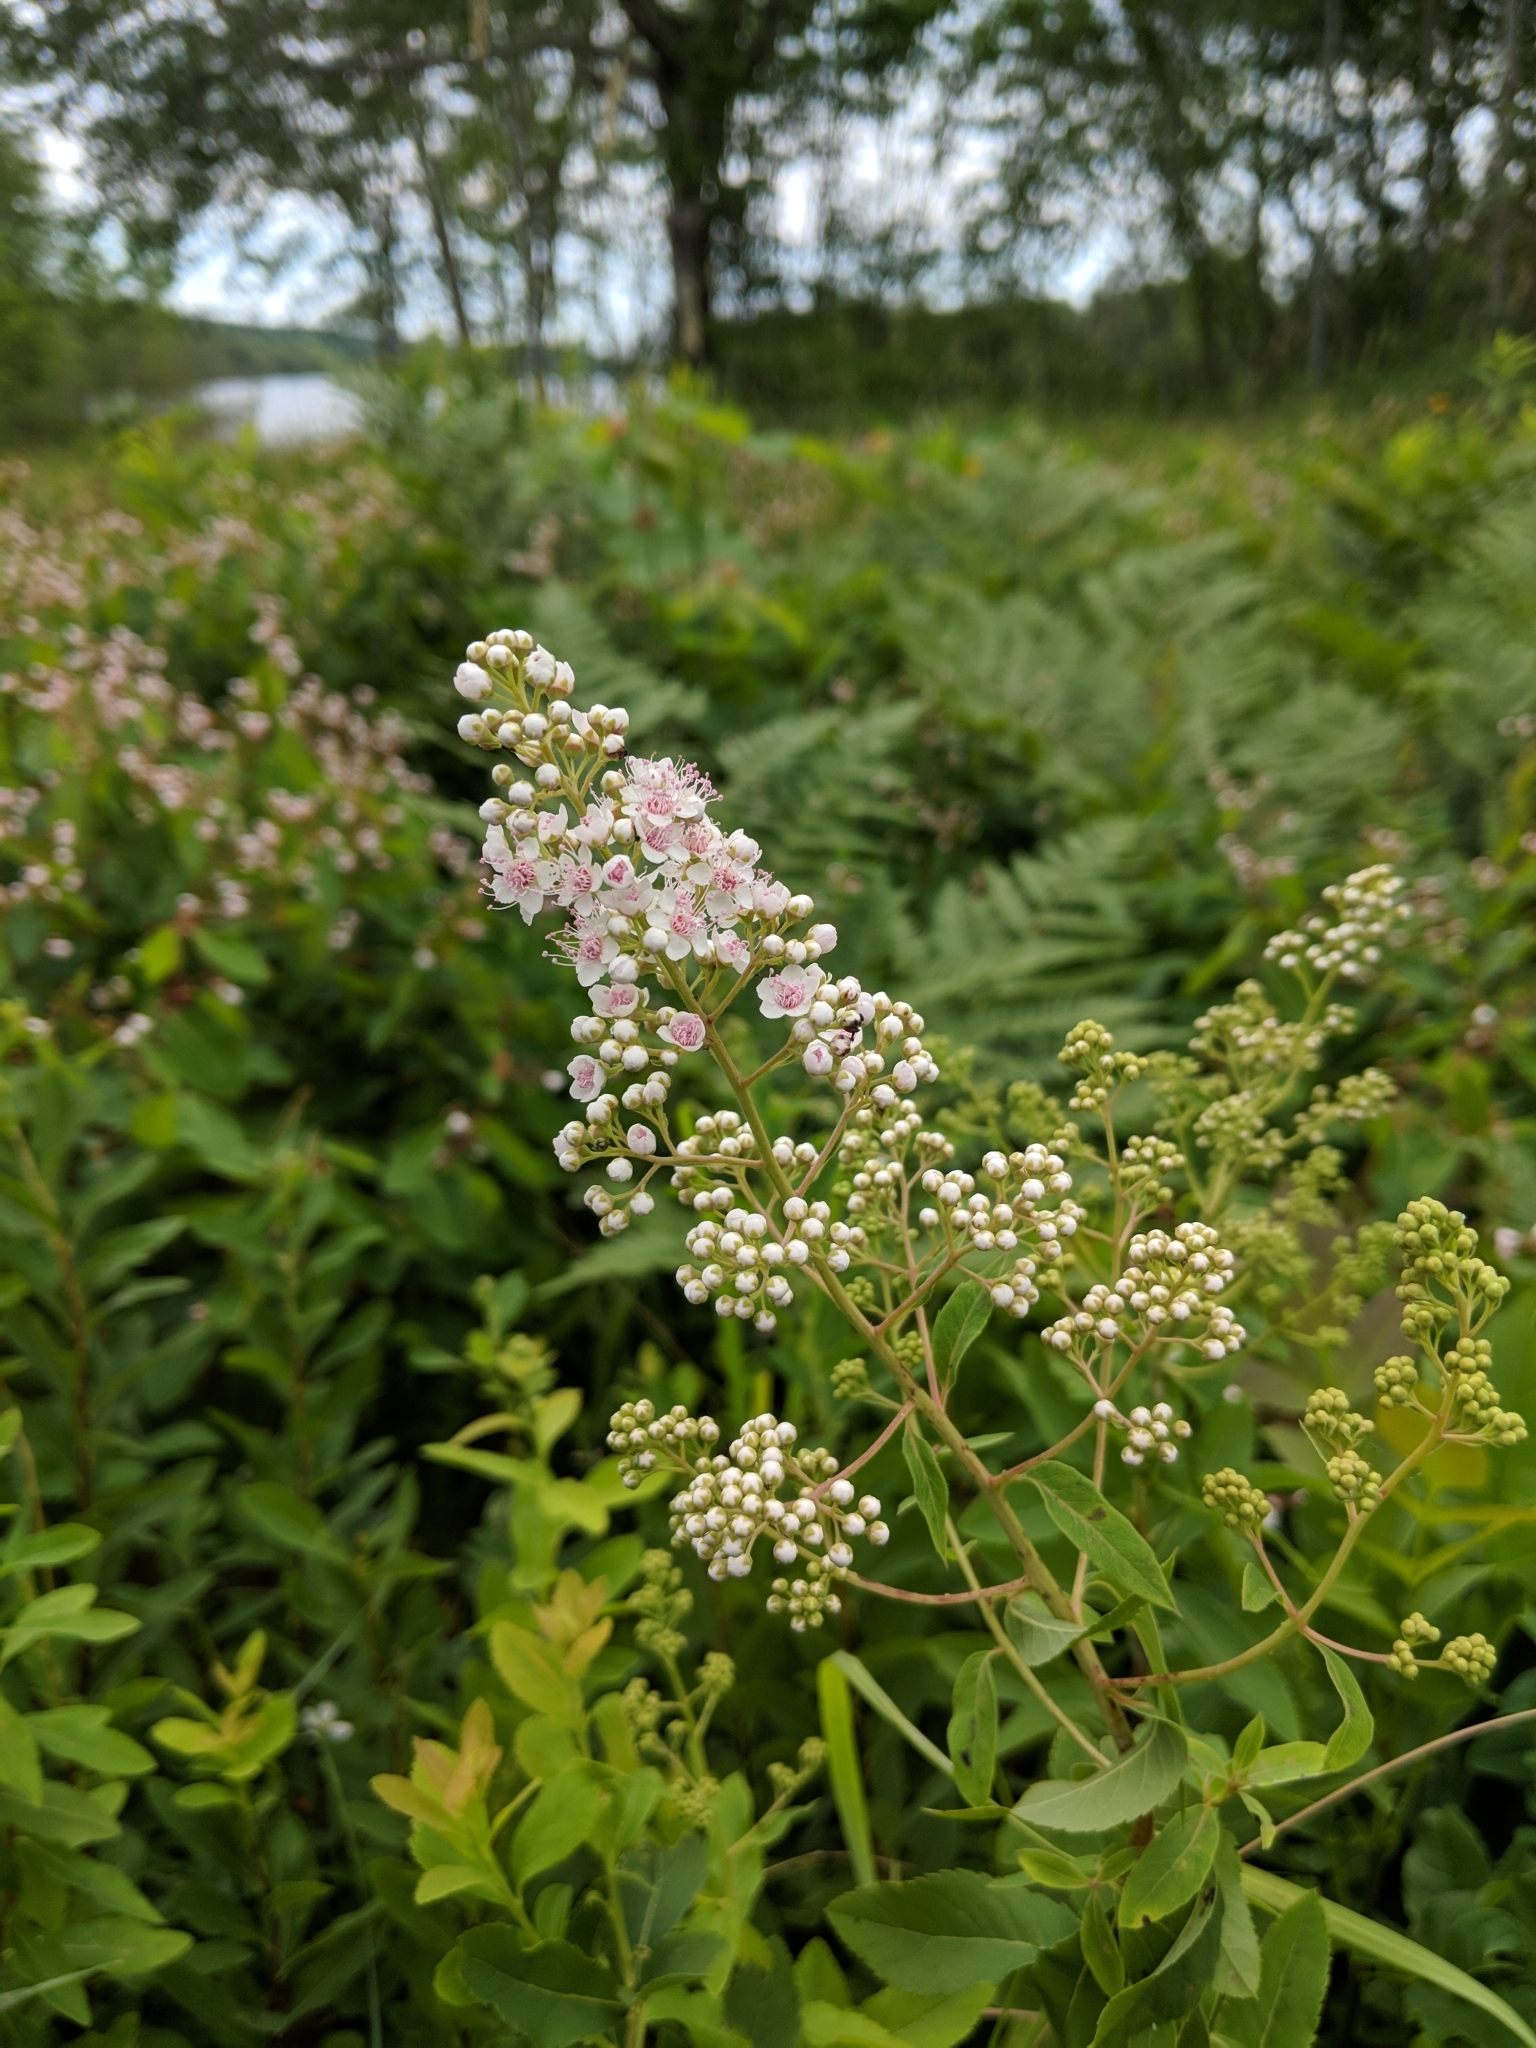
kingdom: Plantae
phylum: Tracheophyta
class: Magnoliopsida
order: Rosales
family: Rosaceae
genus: Spiraea
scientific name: Spiraea alba
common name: Pale bridewort
